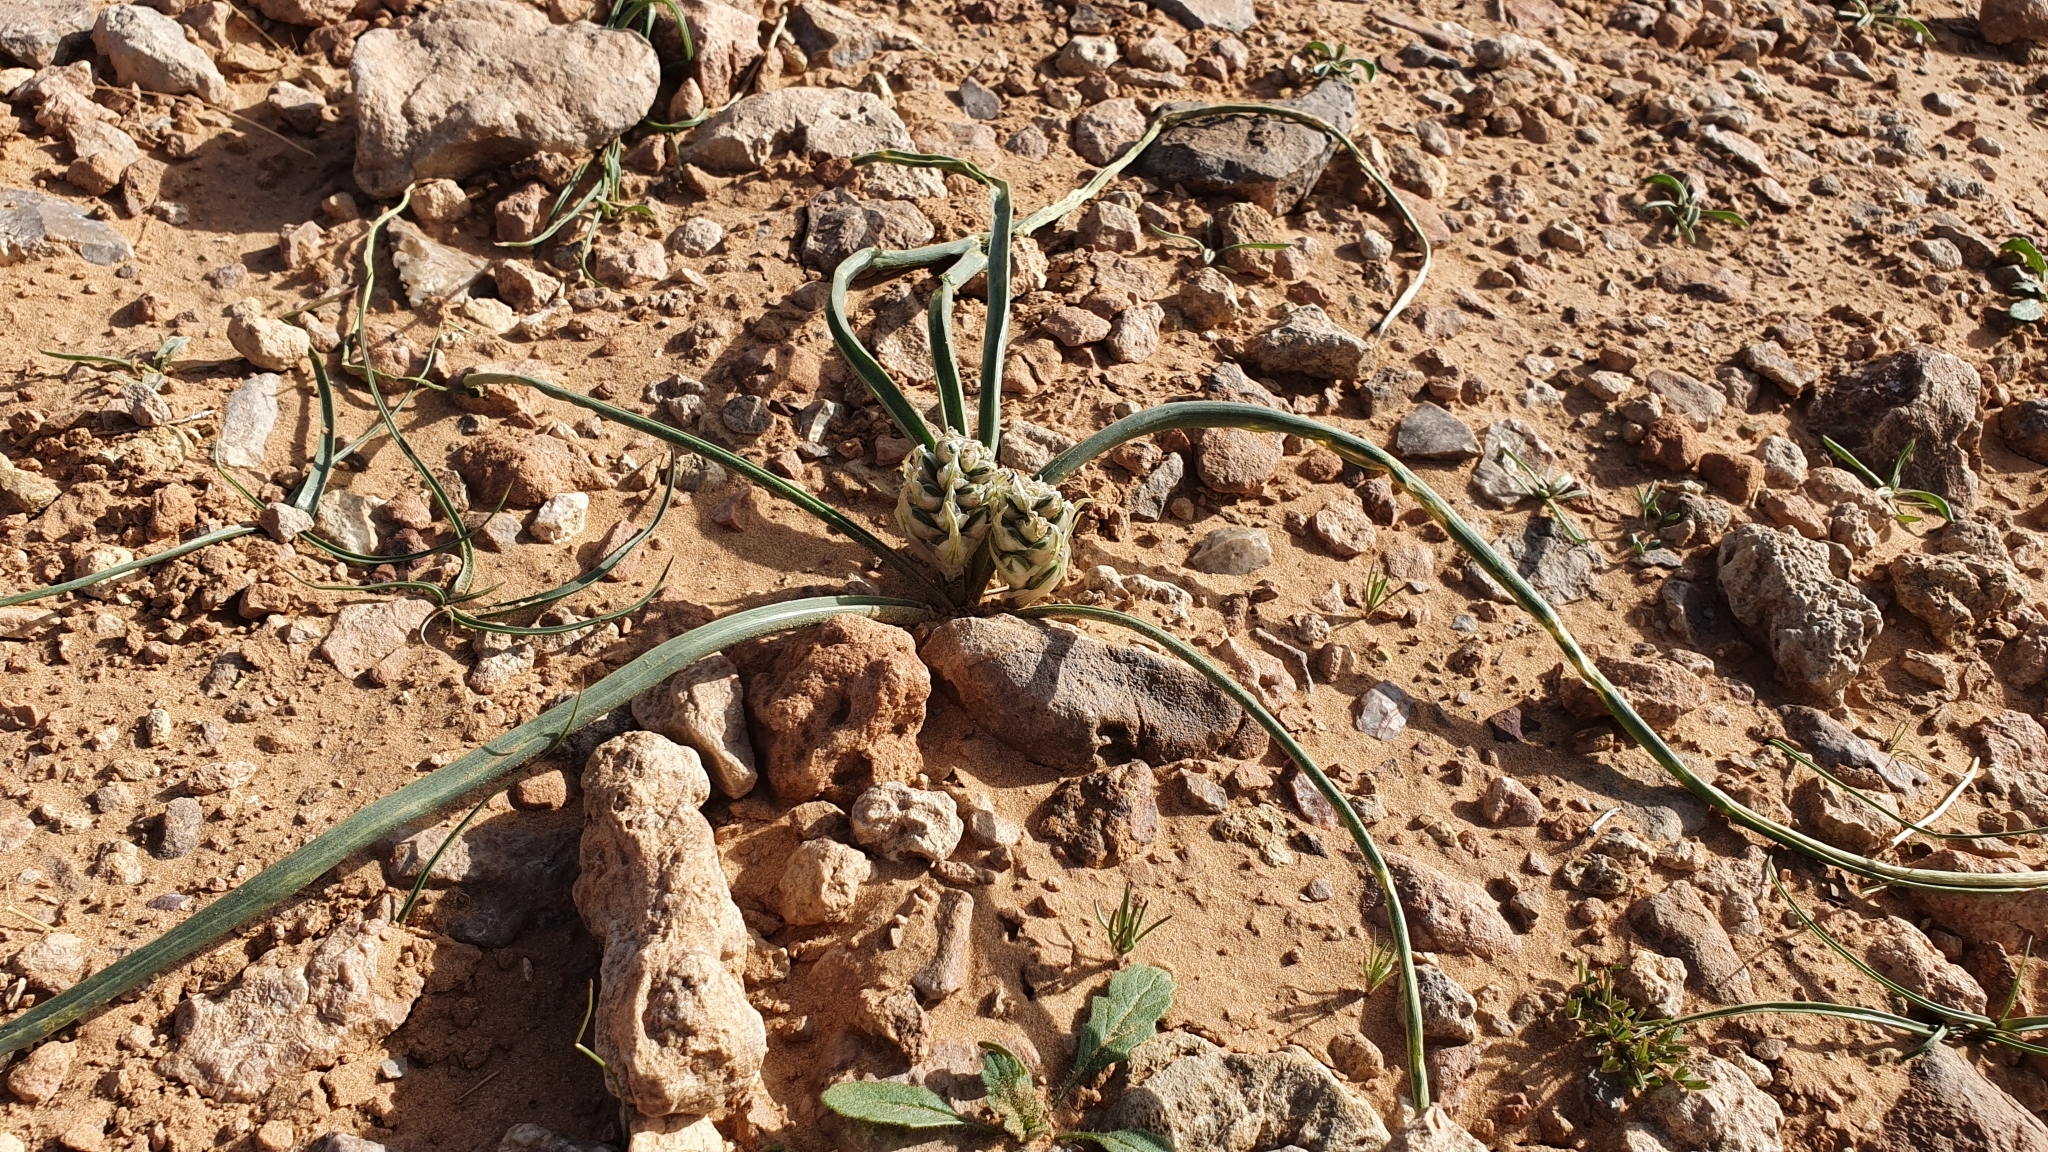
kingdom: Plantae
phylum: Tracheophyta
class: Liliopsida
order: Asparagales
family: Asparagaceae
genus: Albuca
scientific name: Albuca amoena
